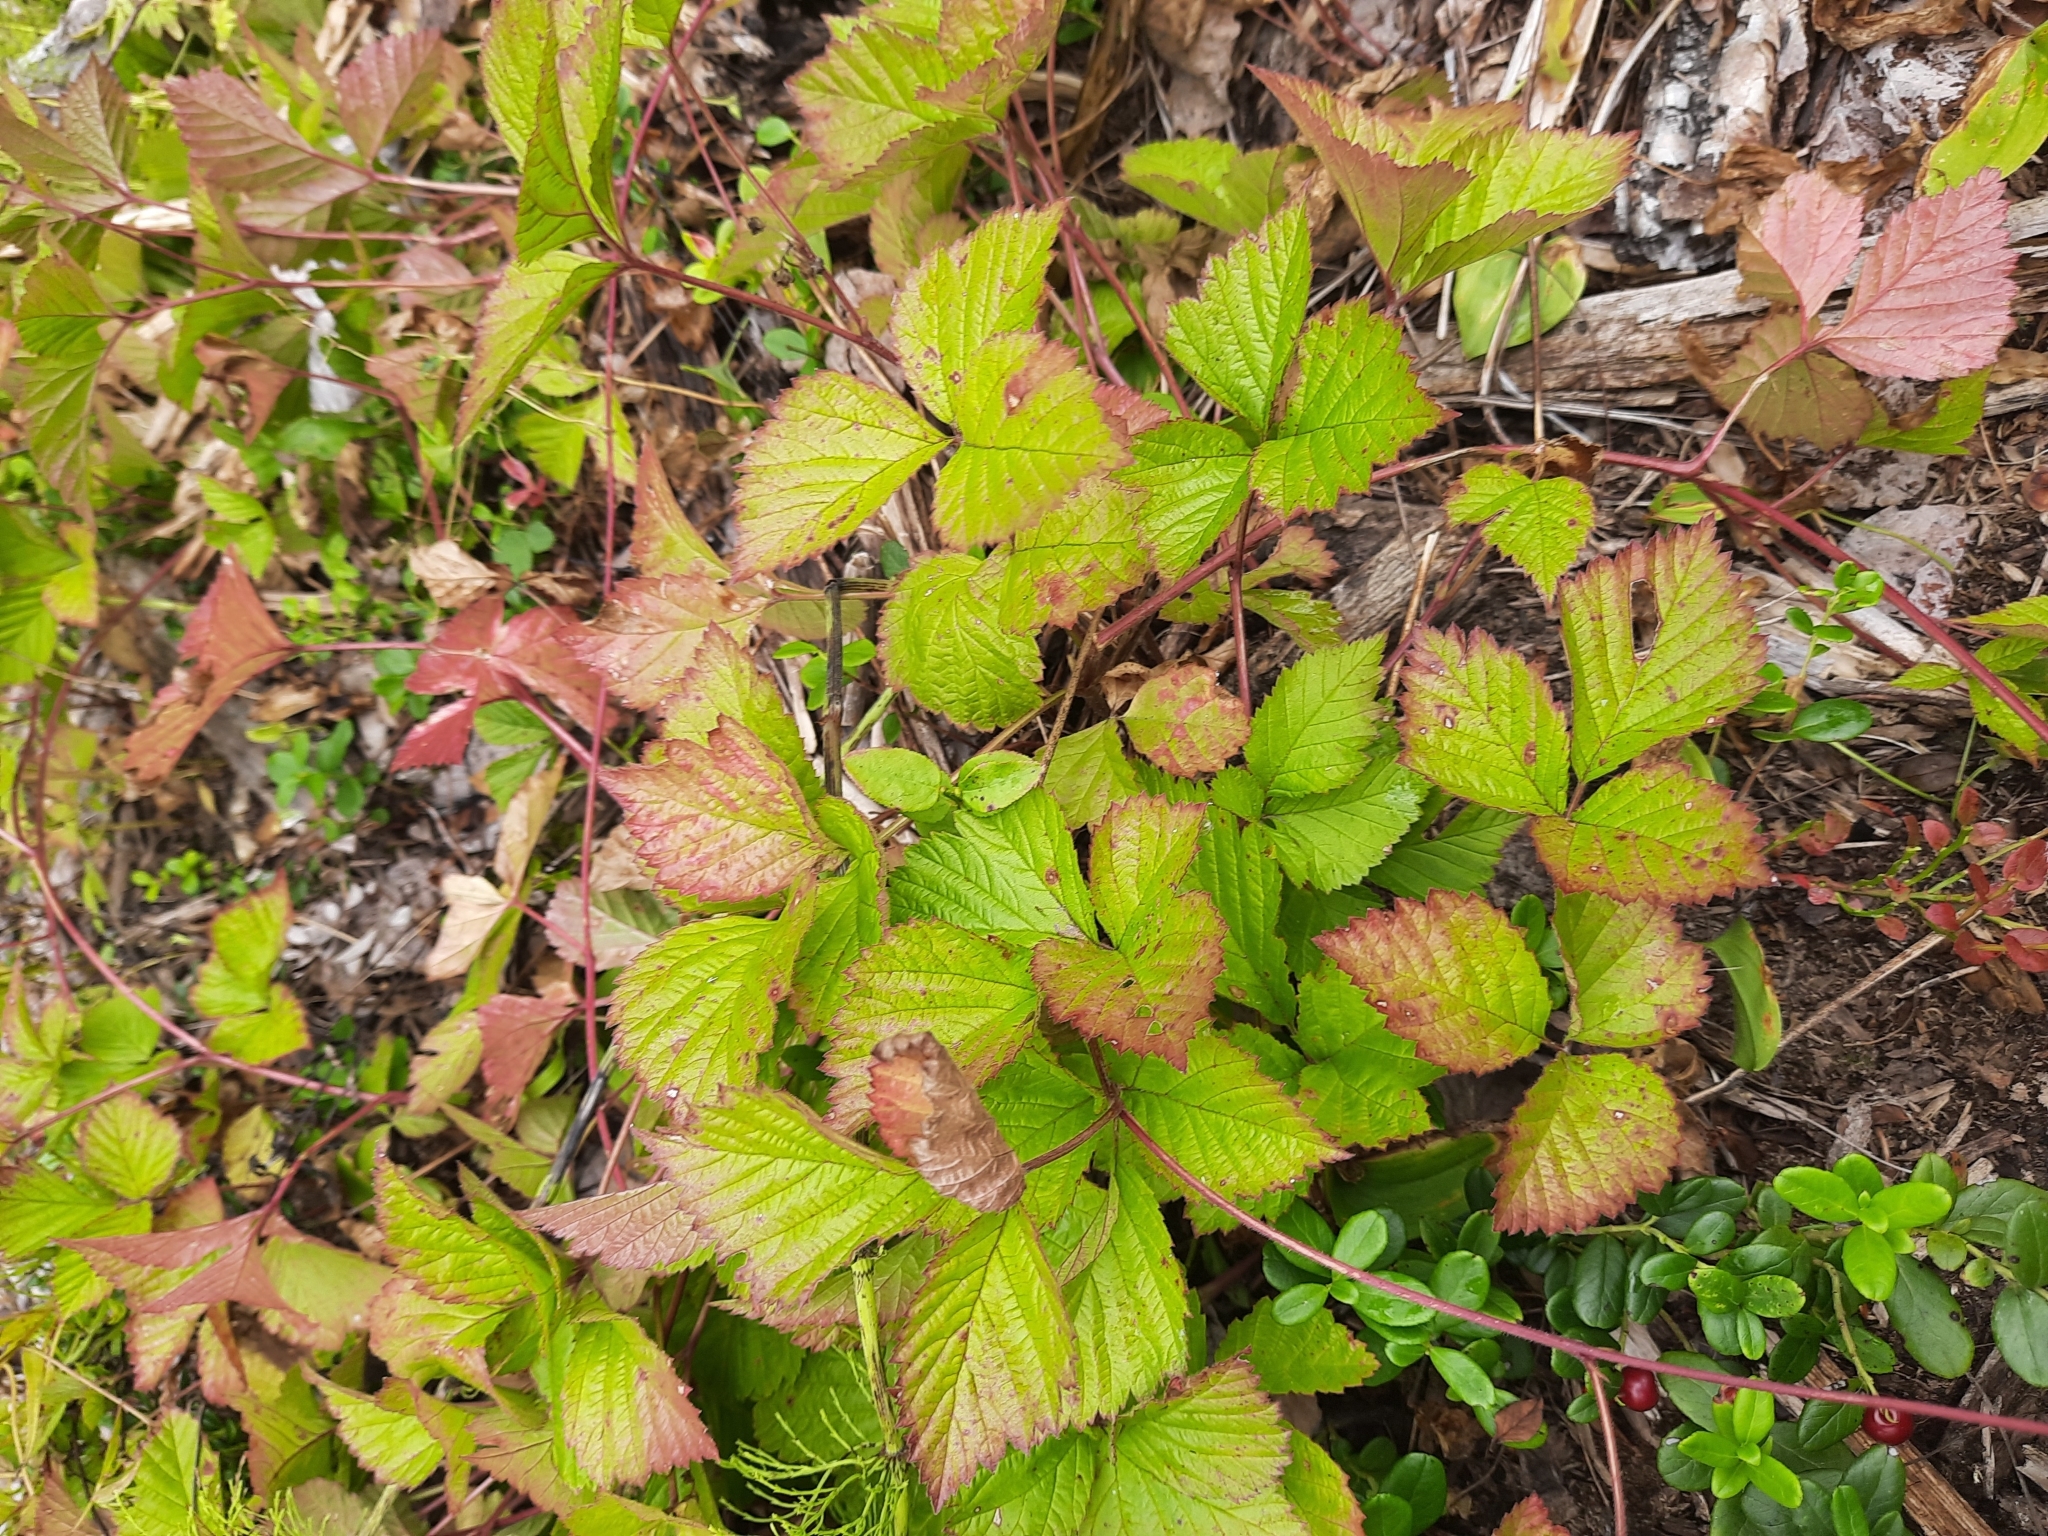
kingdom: Plantae
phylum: Tracheophyta
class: Magnoliopsida
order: Rosales
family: Rosaceae
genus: Rubus
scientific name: Rubus saxatilis
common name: Stone bramble
